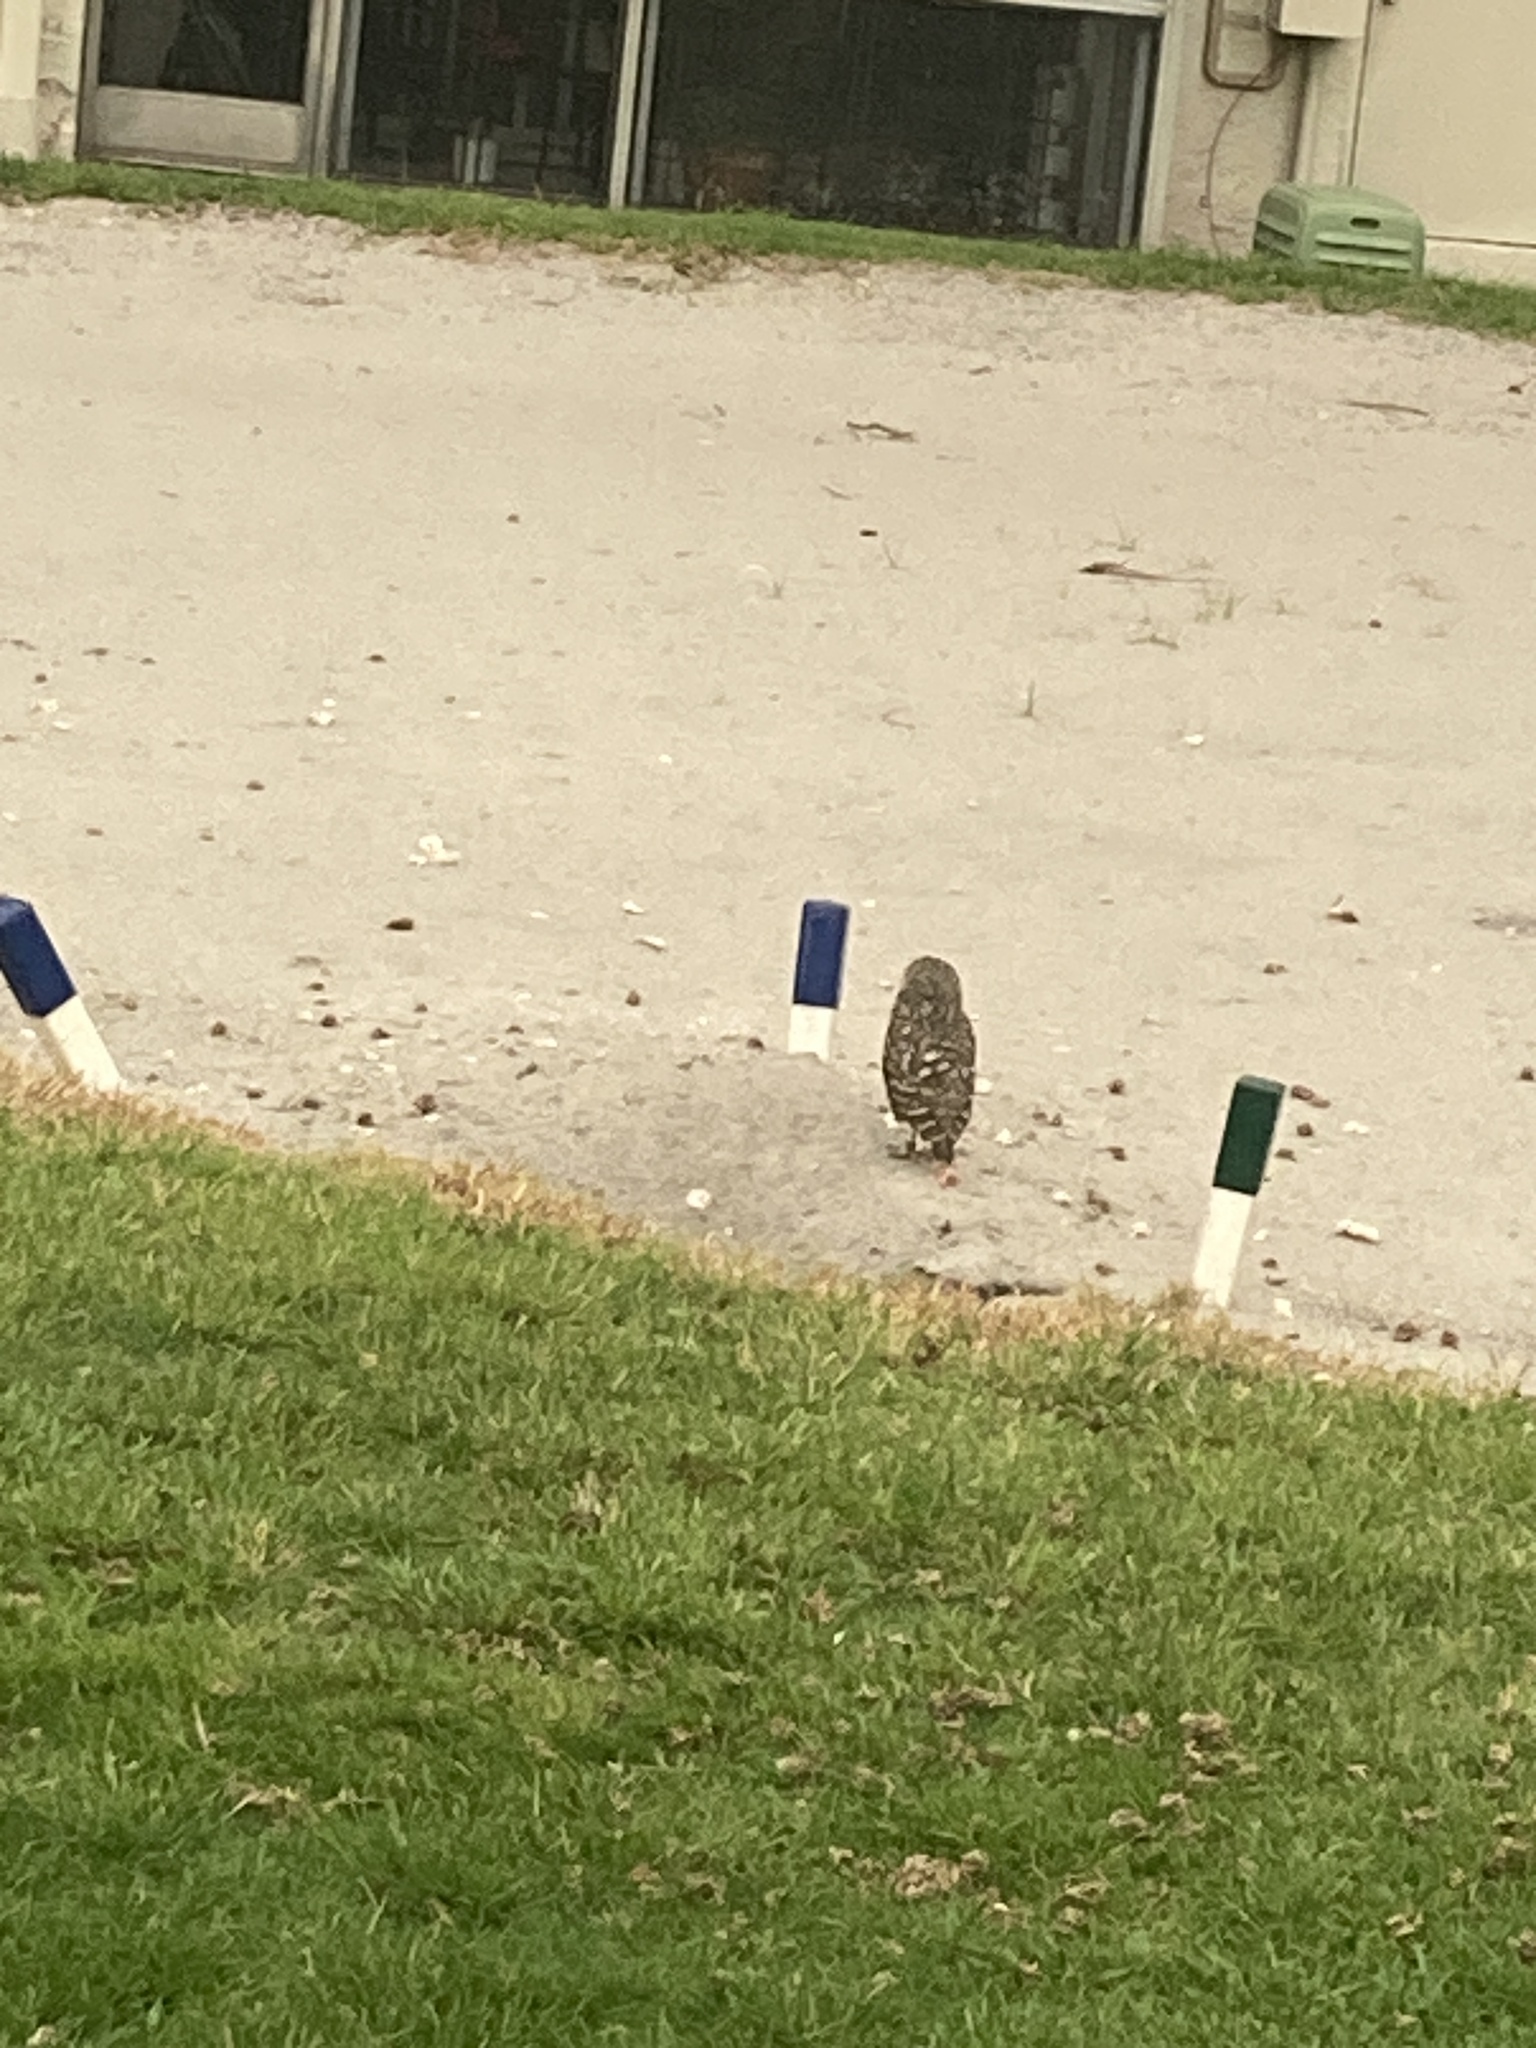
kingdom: Animalia
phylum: Chordata
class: Aves
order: Strigiformes
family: Strigidae
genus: Athene
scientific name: Athene cunicularia
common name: Burrowing owl
